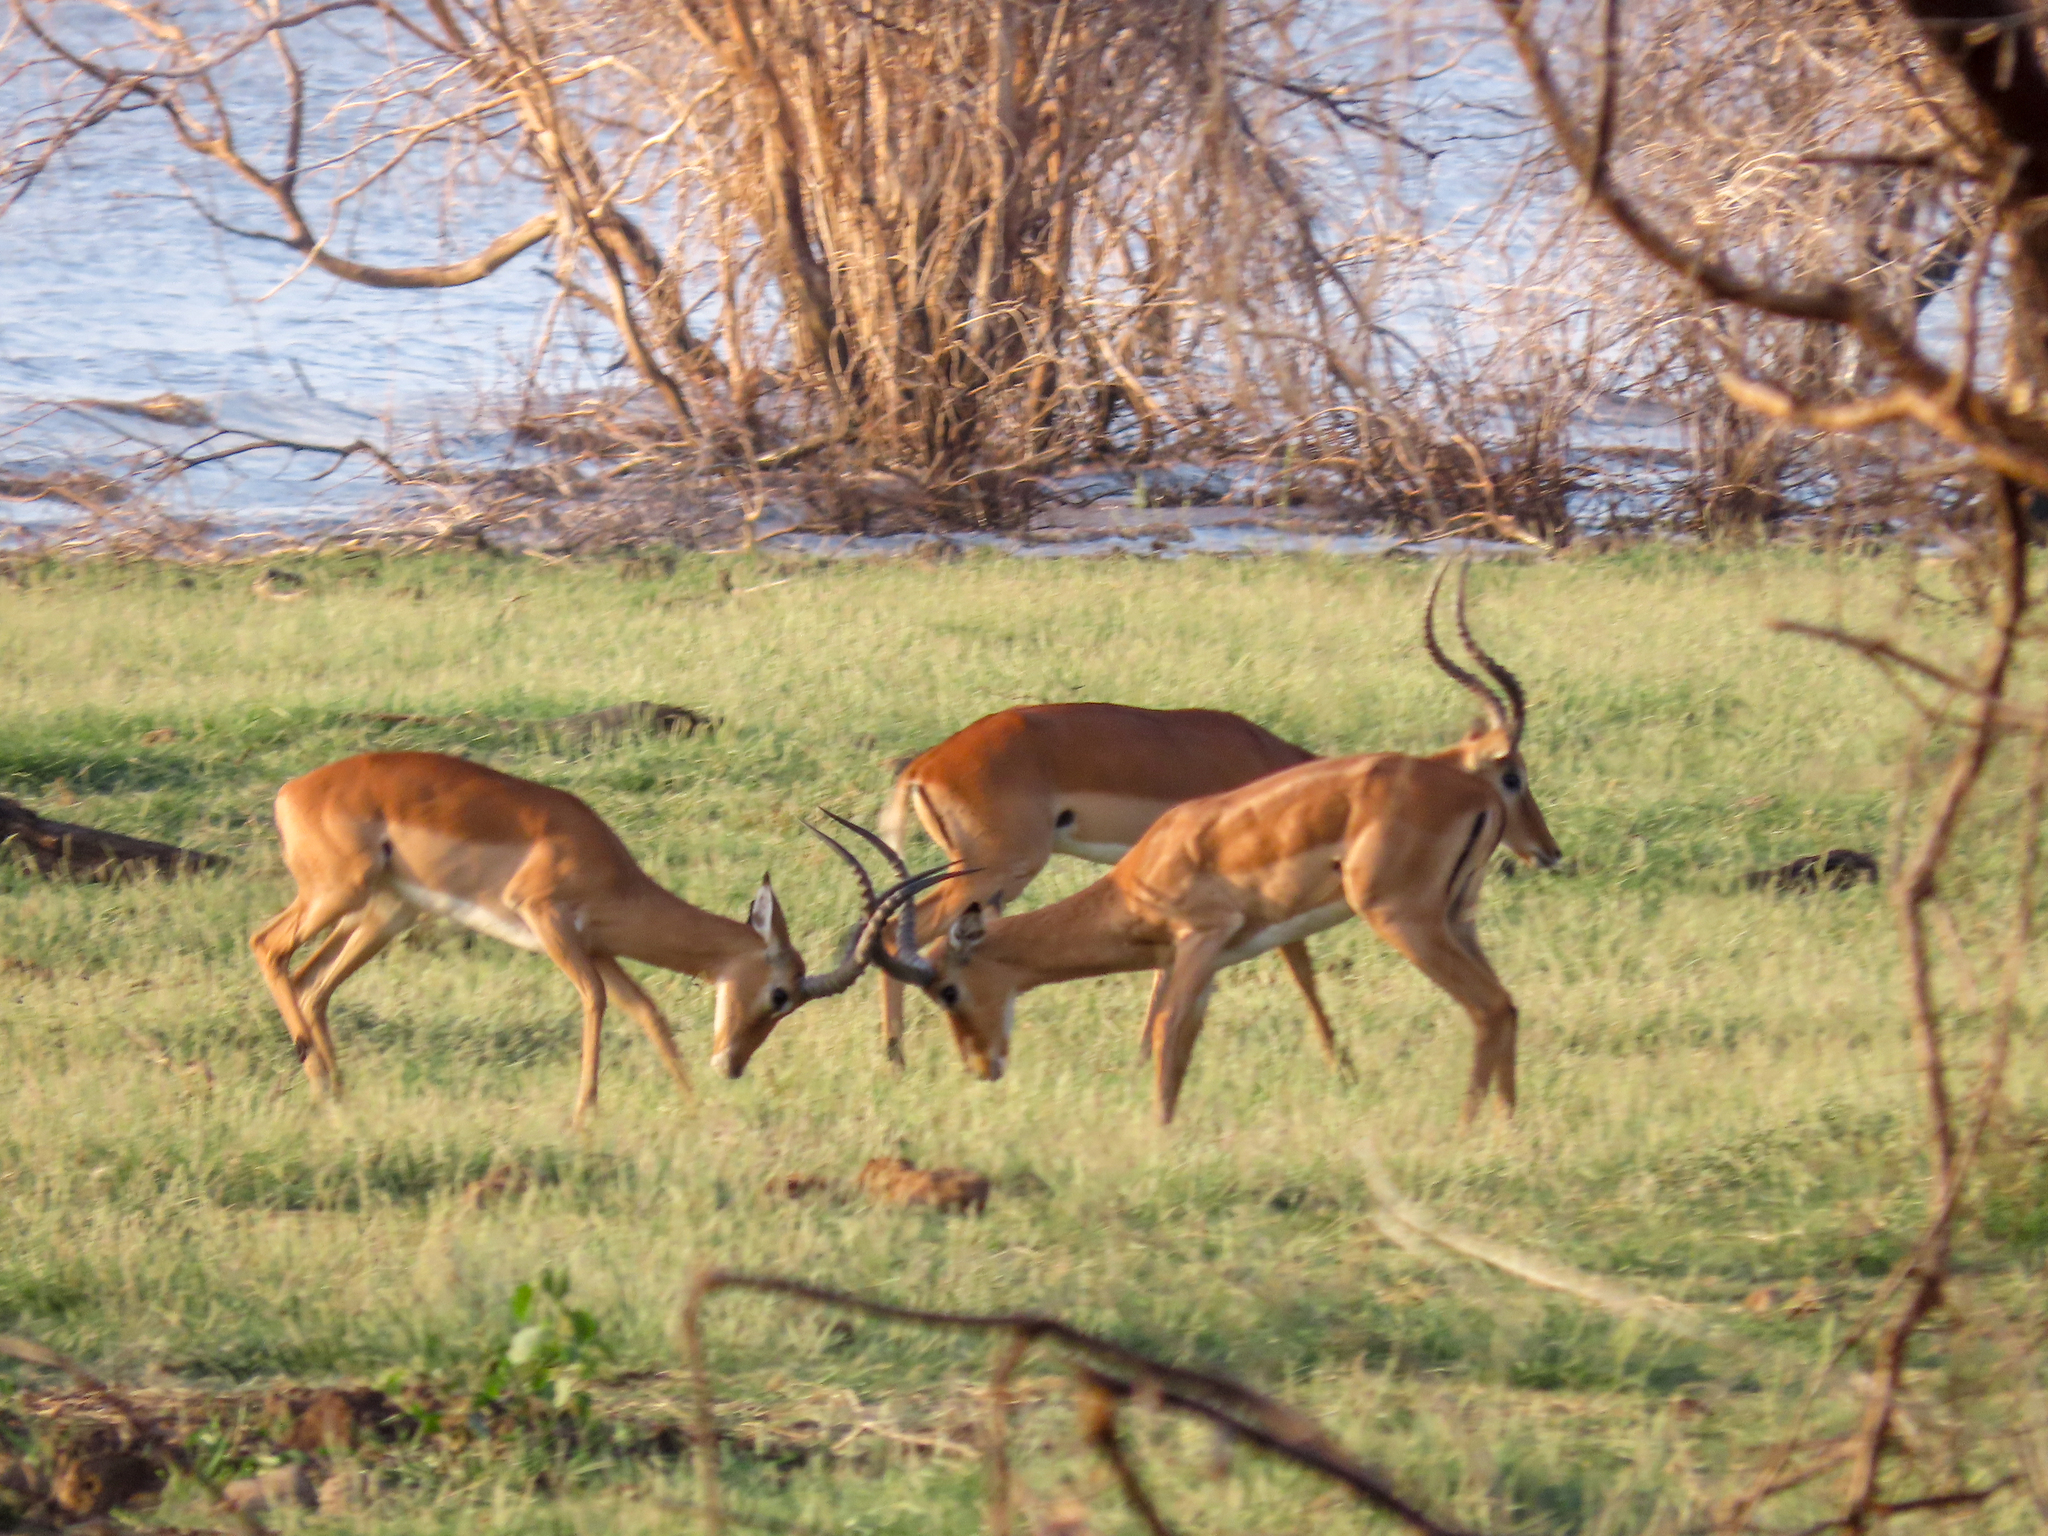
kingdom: Animalia
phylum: Chordata
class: Mammalia
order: Artiodactyla
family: Bovidae
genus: Aepyceros
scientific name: Aepyceros melampus
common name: Impala
